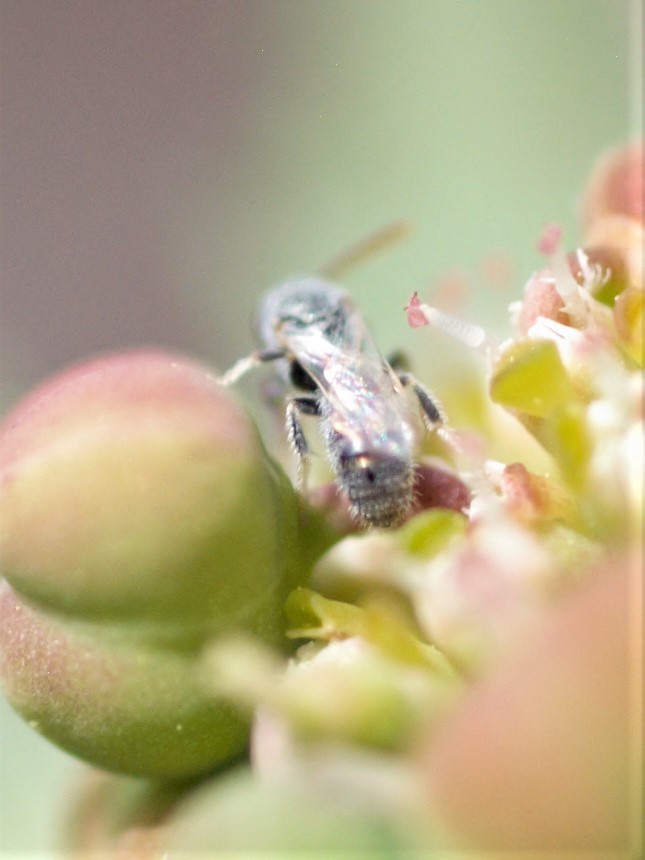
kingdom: Animalia
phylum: Arthropoda
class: Insecta
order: Hymenoptera
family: Halictidae
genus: Dialictus
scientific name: Dialictus
